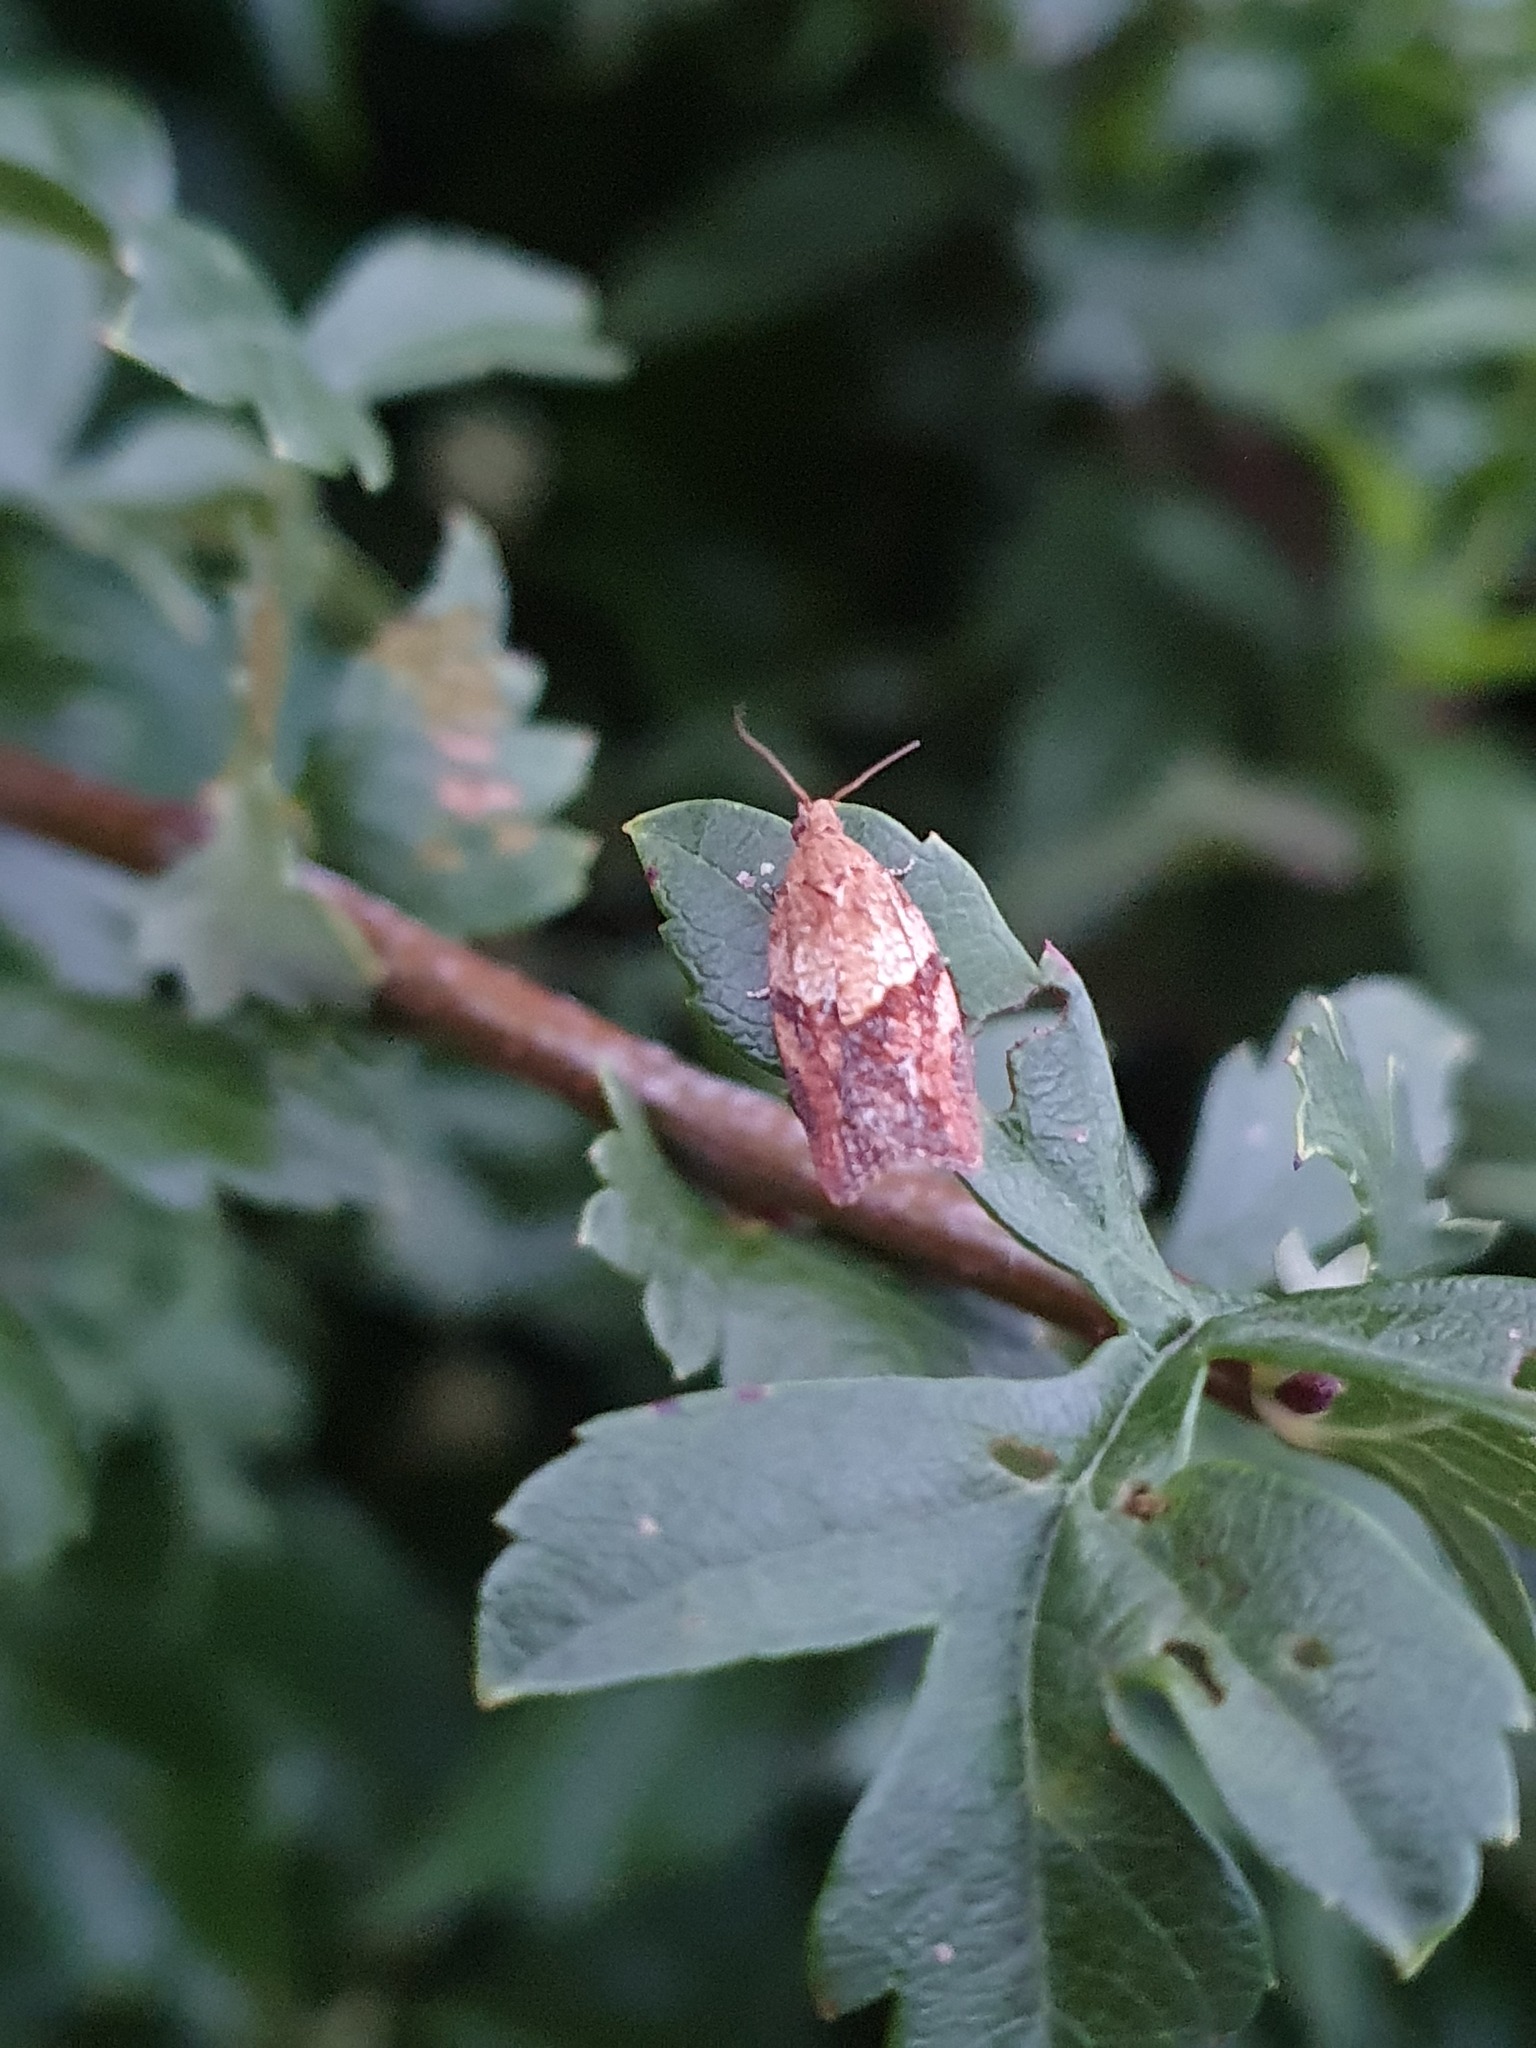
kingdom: Animalia
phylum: Arthropoda
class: Insecta
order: Lepidoptera
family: Tortricidae
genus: Epiphyas
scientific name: Epiphyas postvittana
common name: Light brown apple moth
